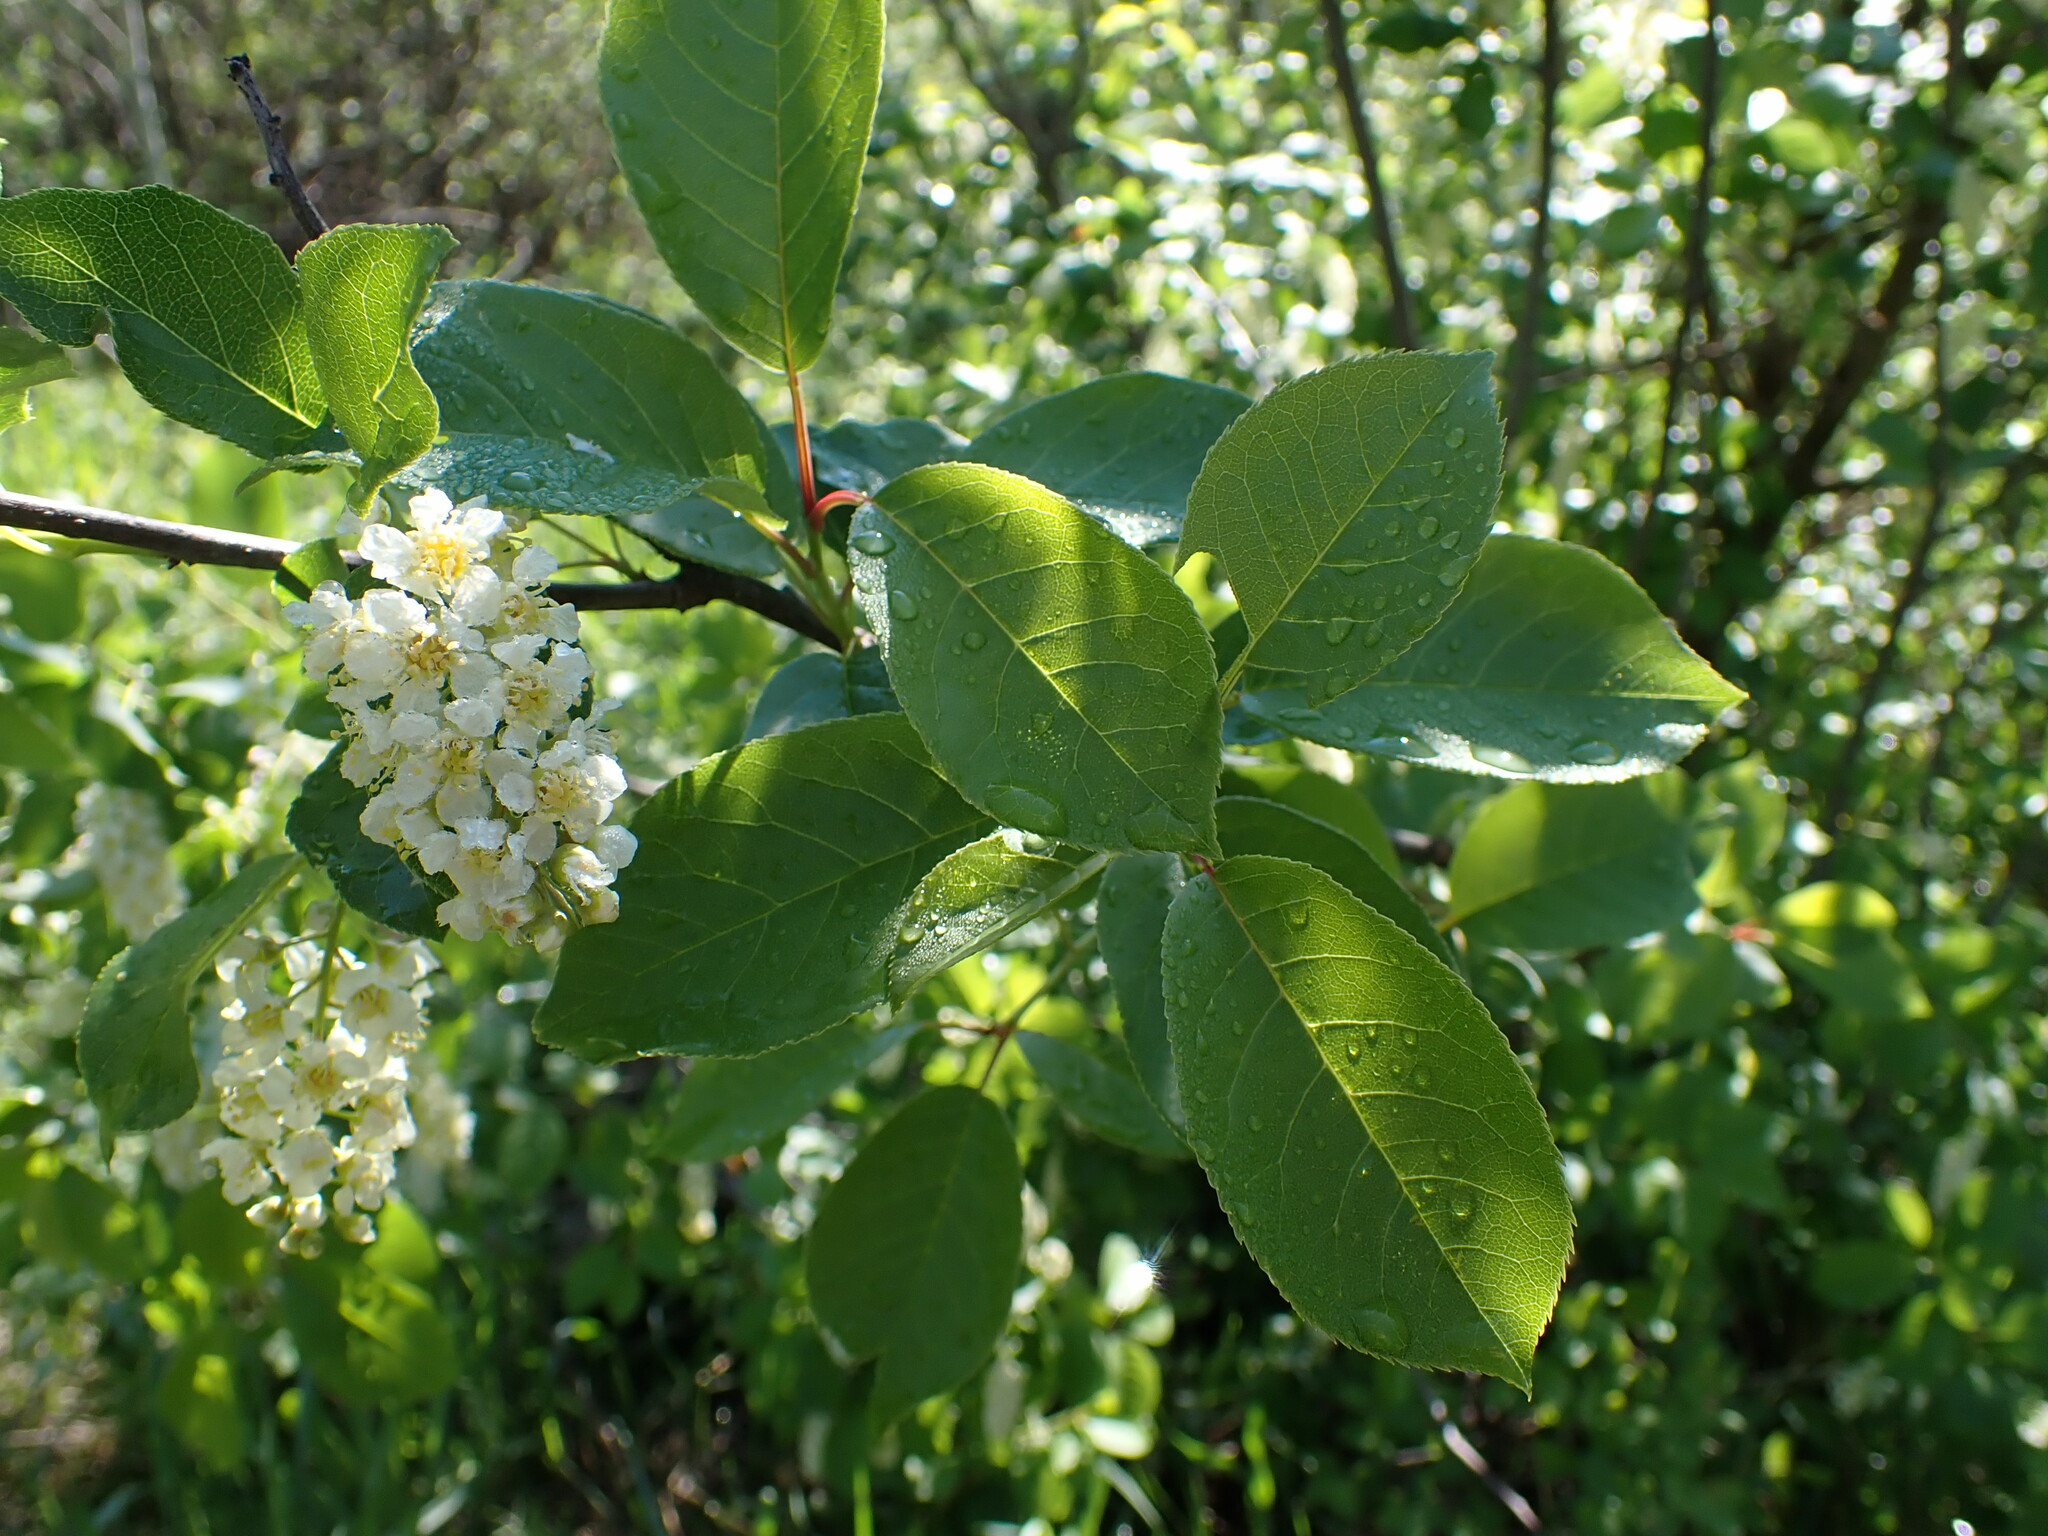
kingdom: Plantae
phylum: Tracheophyta
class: Magnoliopsida
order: Rosales
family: Rosaceae
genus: Prunus
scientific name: Prunus virginiana
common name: Chokecherry
